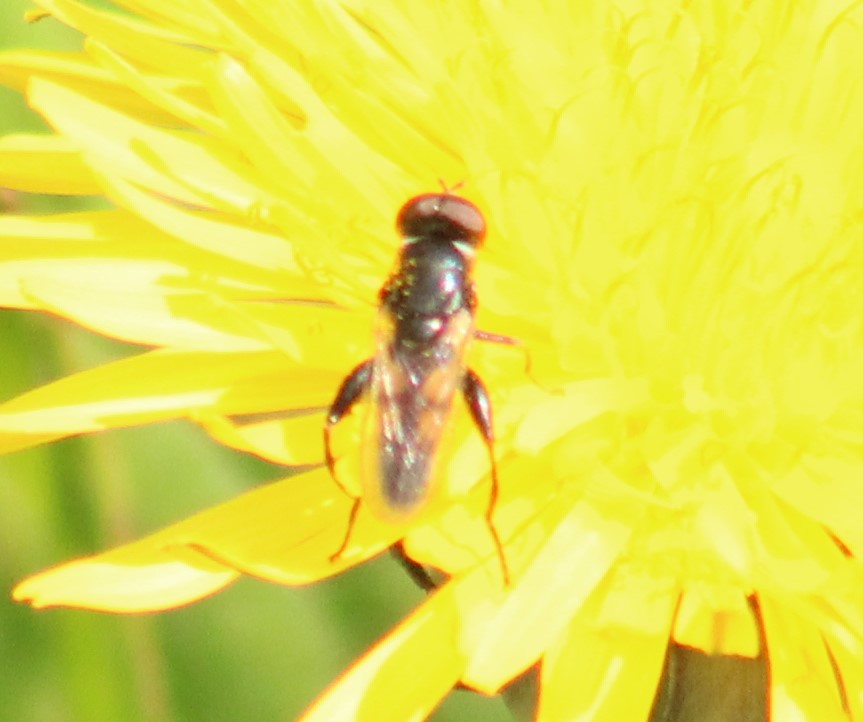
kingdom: Animalia
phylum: Arthropoda
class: Insecta
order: Diptera
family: Syrphidae
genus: Tropidia
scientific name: Tropidia scita
